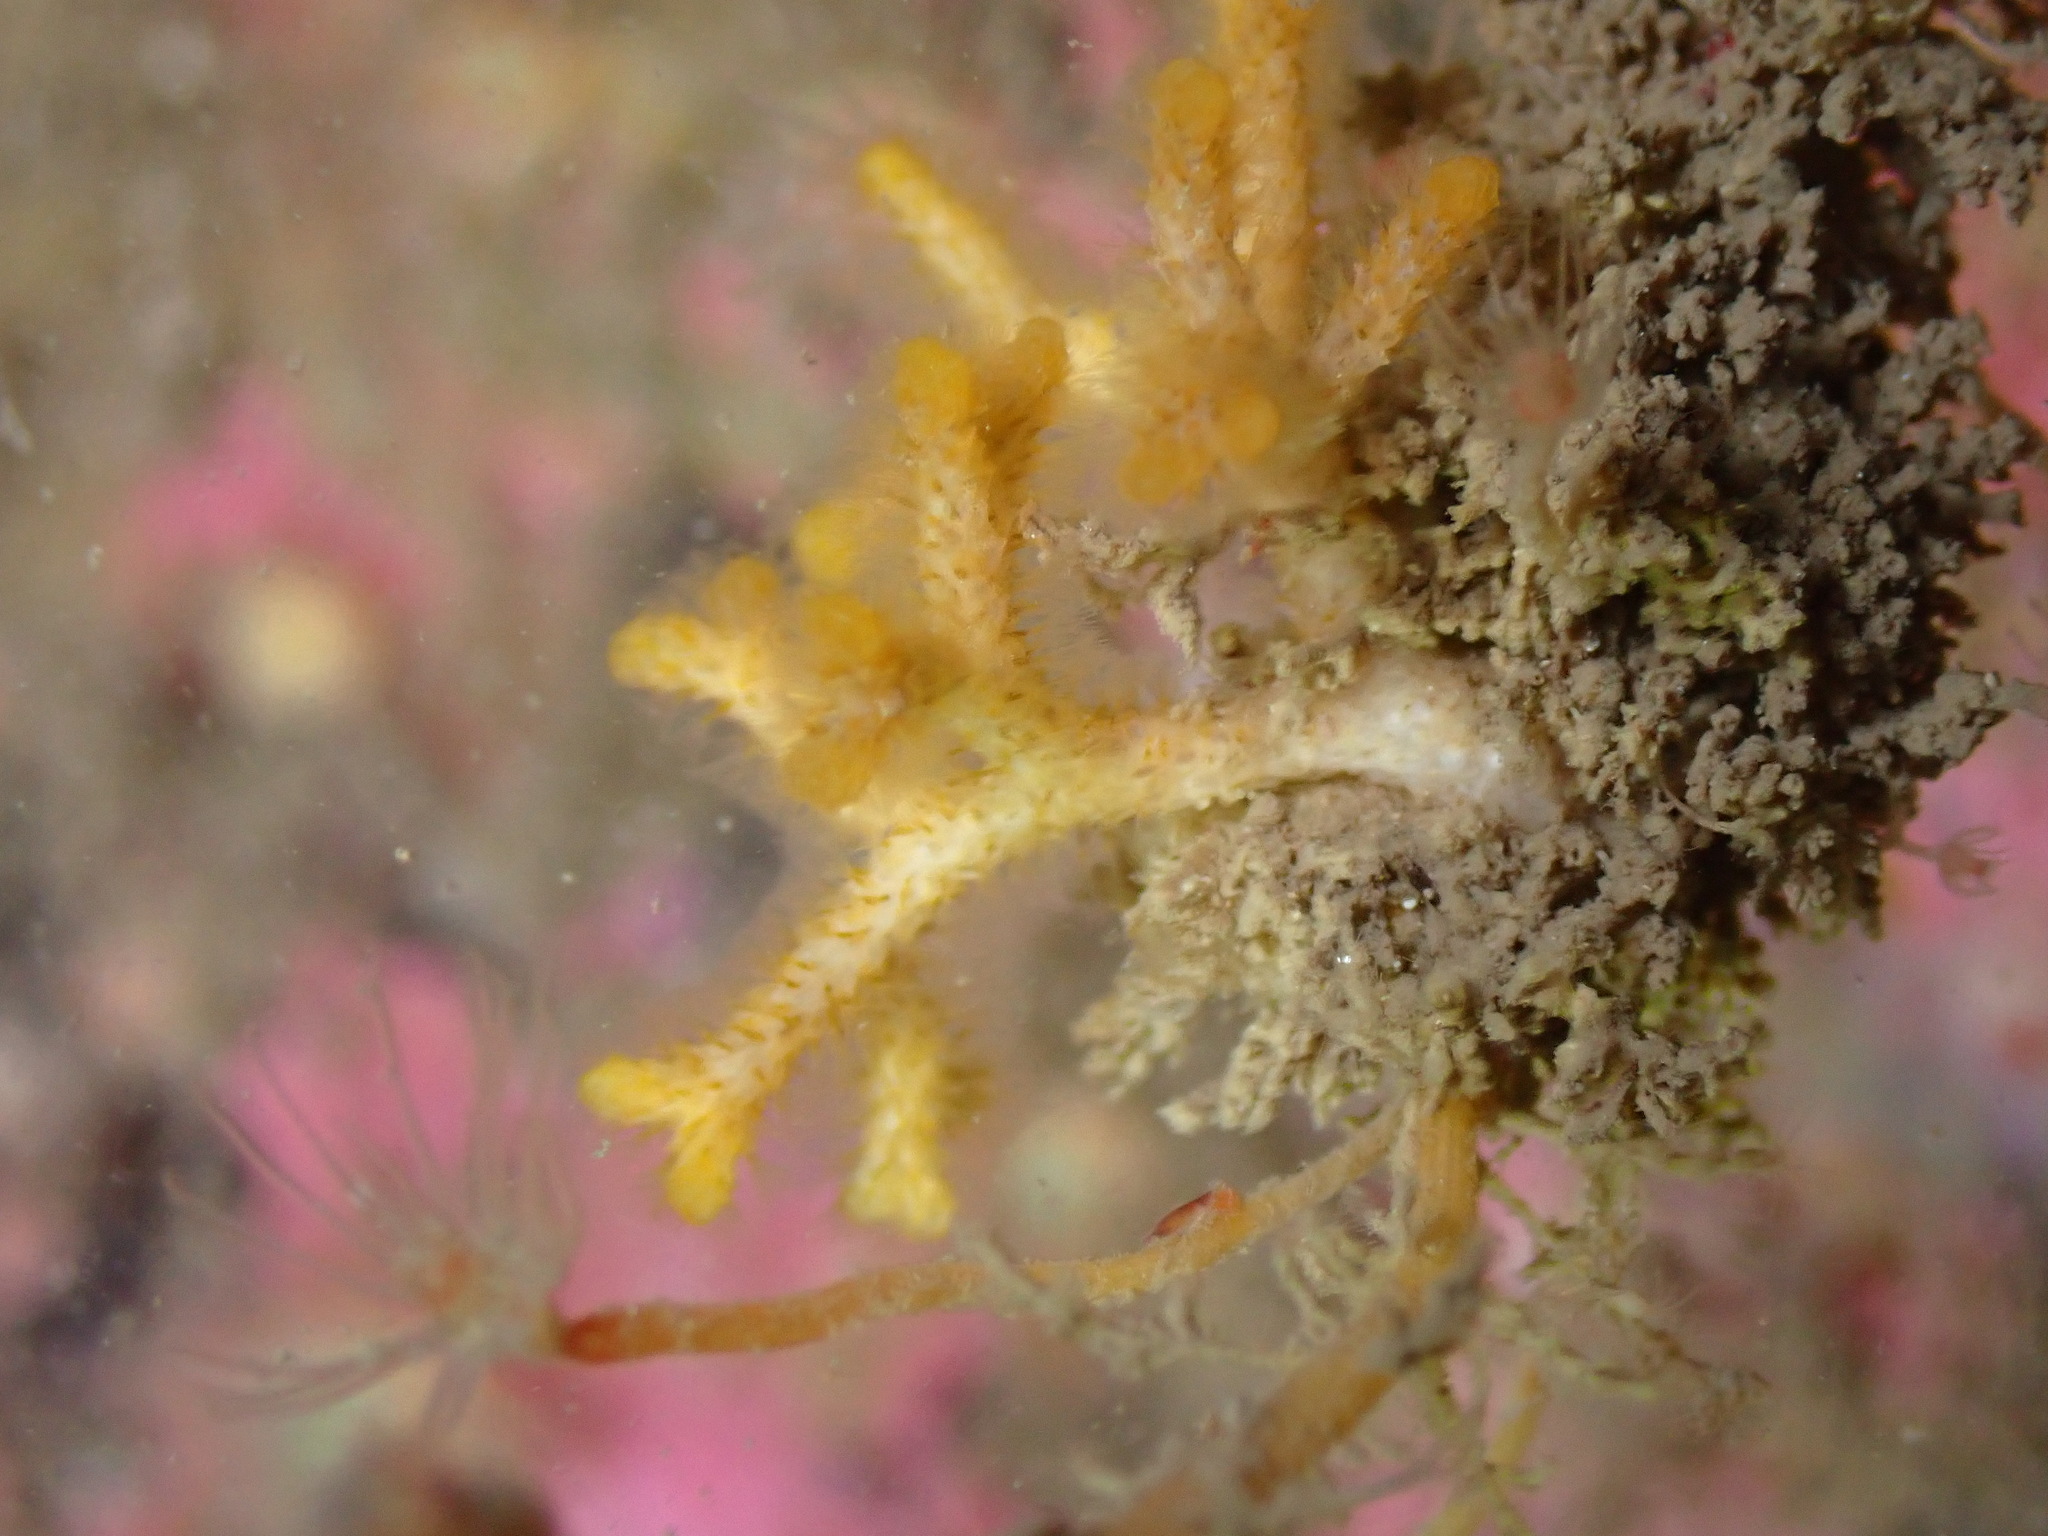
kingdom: Animalia
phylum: Bryozoa
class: Gymnolaemata
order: Cheilostomatida
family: Celleporidae
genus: Omalosecosa
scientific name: Omalosecosa ramulosa
